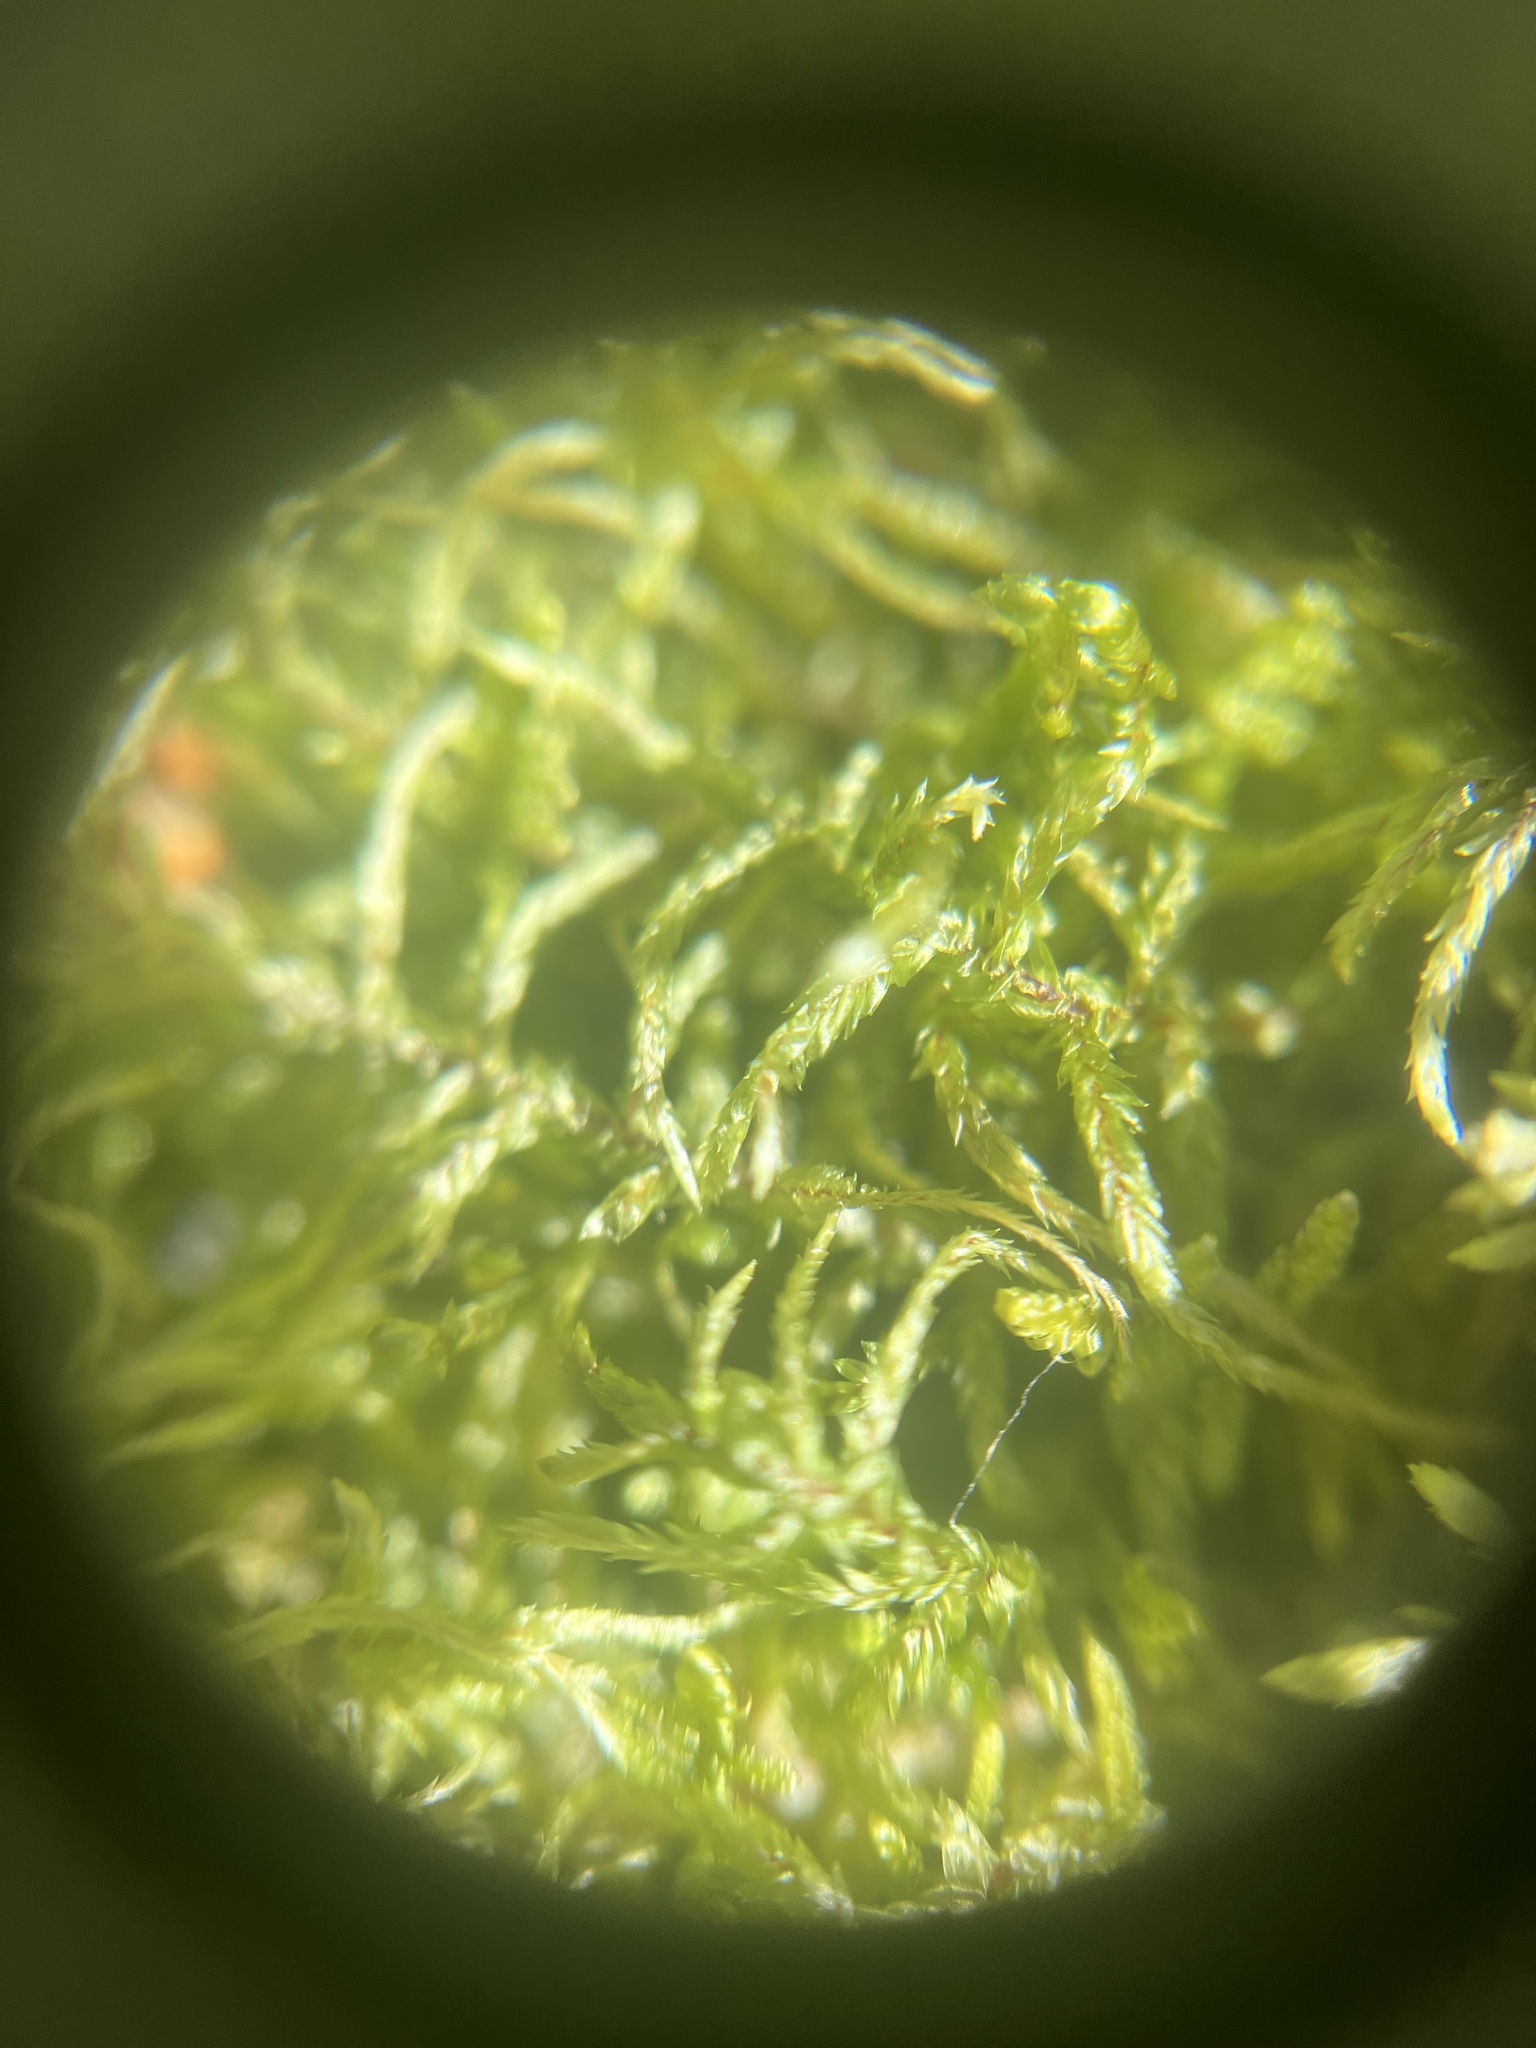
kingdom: Plantae
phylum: Bryophyta
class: Bryopsida
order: Hypnales
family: Hylocomiaceae
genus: Pleurozium
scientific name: Pleurozium schreberi
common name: Red-stemmed feather moss
